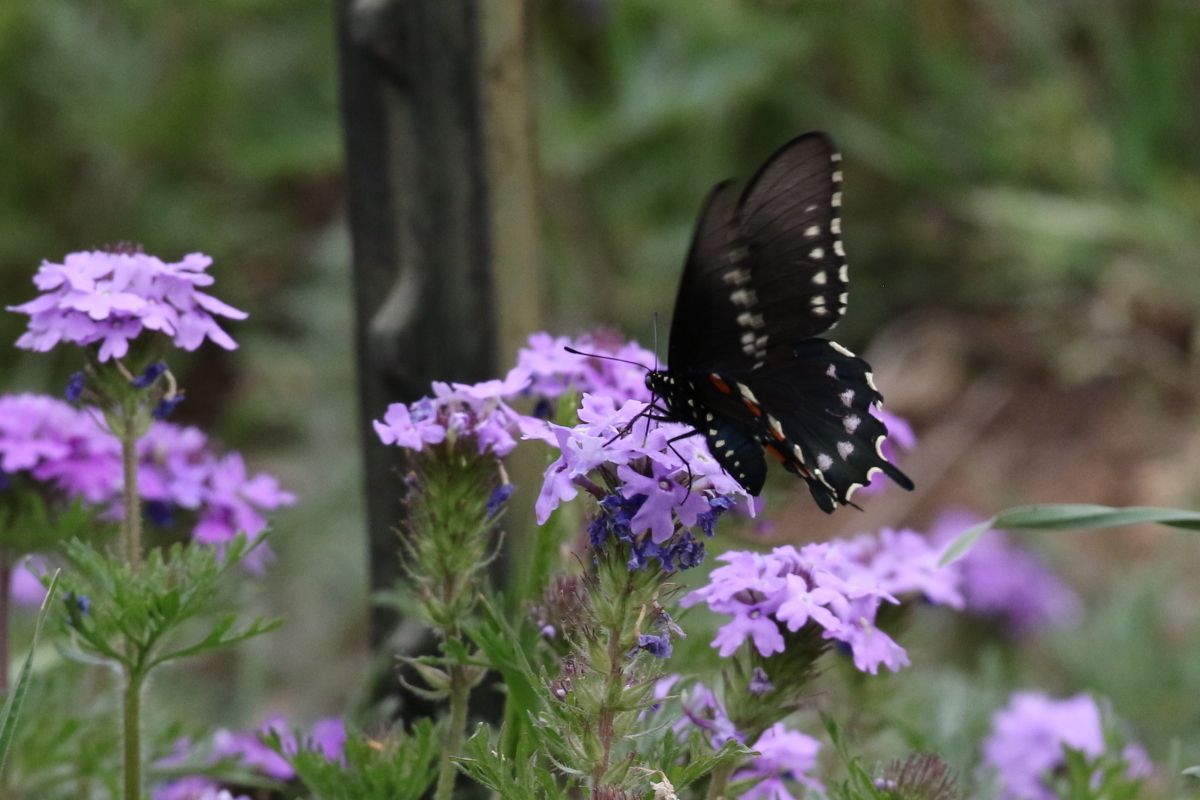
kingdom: Animalia
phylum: Arthropoda
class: Insecta
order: Lepidoptera
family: Papilionidae
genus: Battus
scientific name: Battus philenor
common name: Pipevine swallowtail
